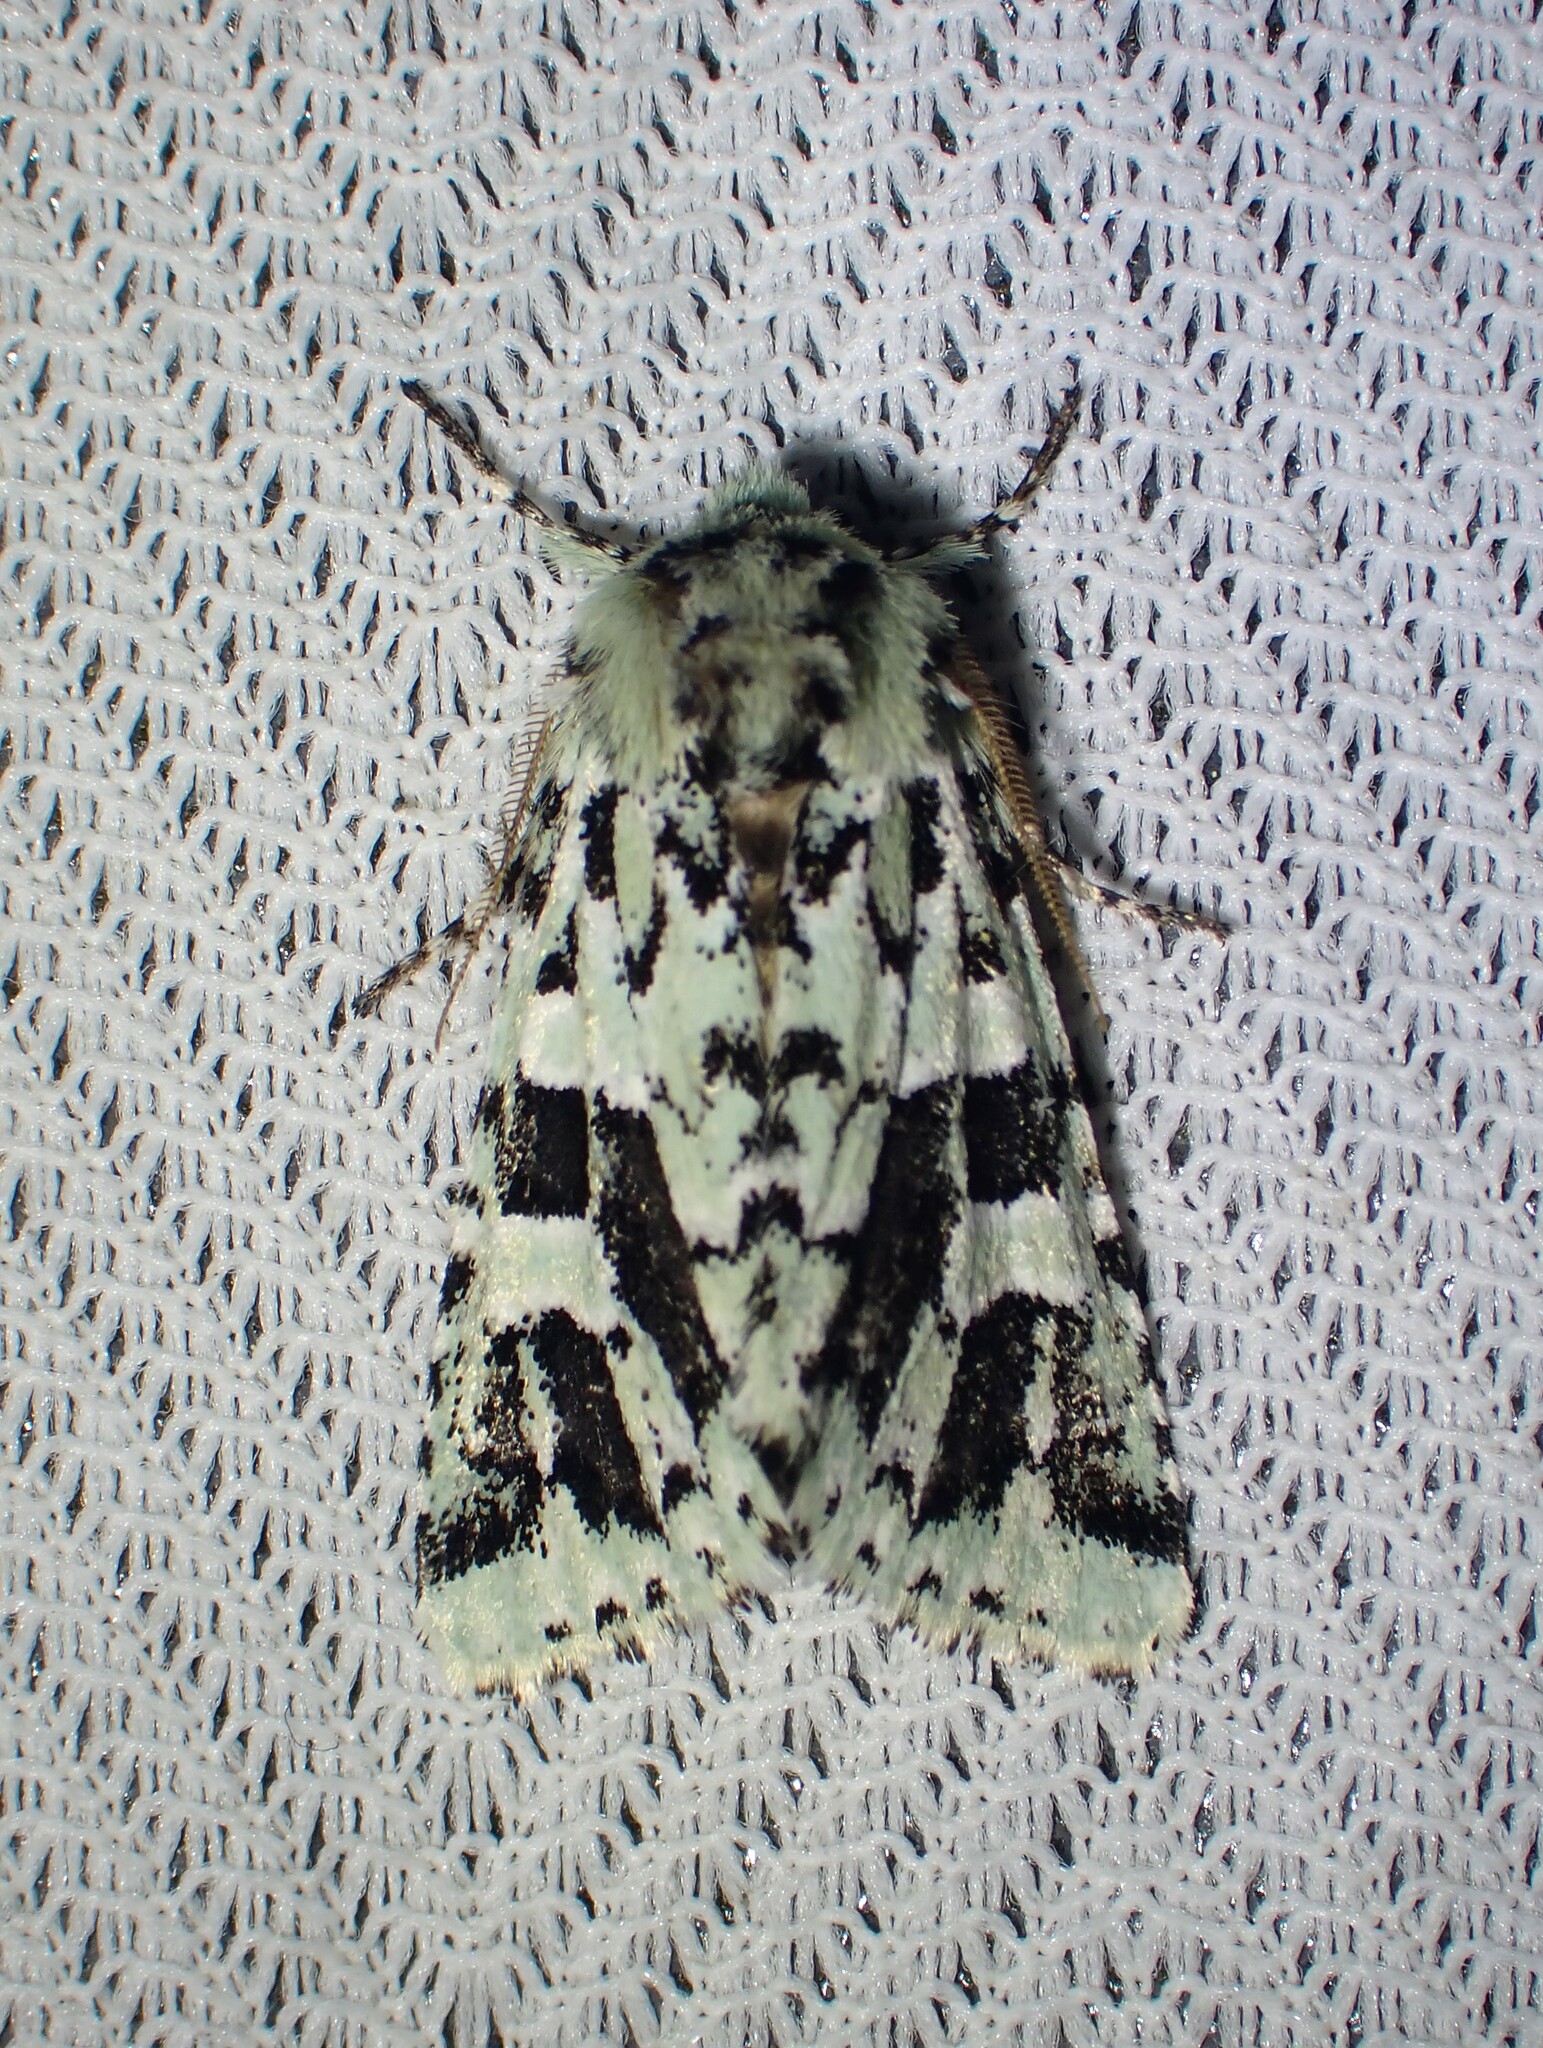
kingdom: Animalia
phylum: Arthropoda
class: Insecta
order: Lepidoptera
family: Noctuidae
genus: Feralia
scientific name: Feralia comstocki
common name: Comstock's sallow
